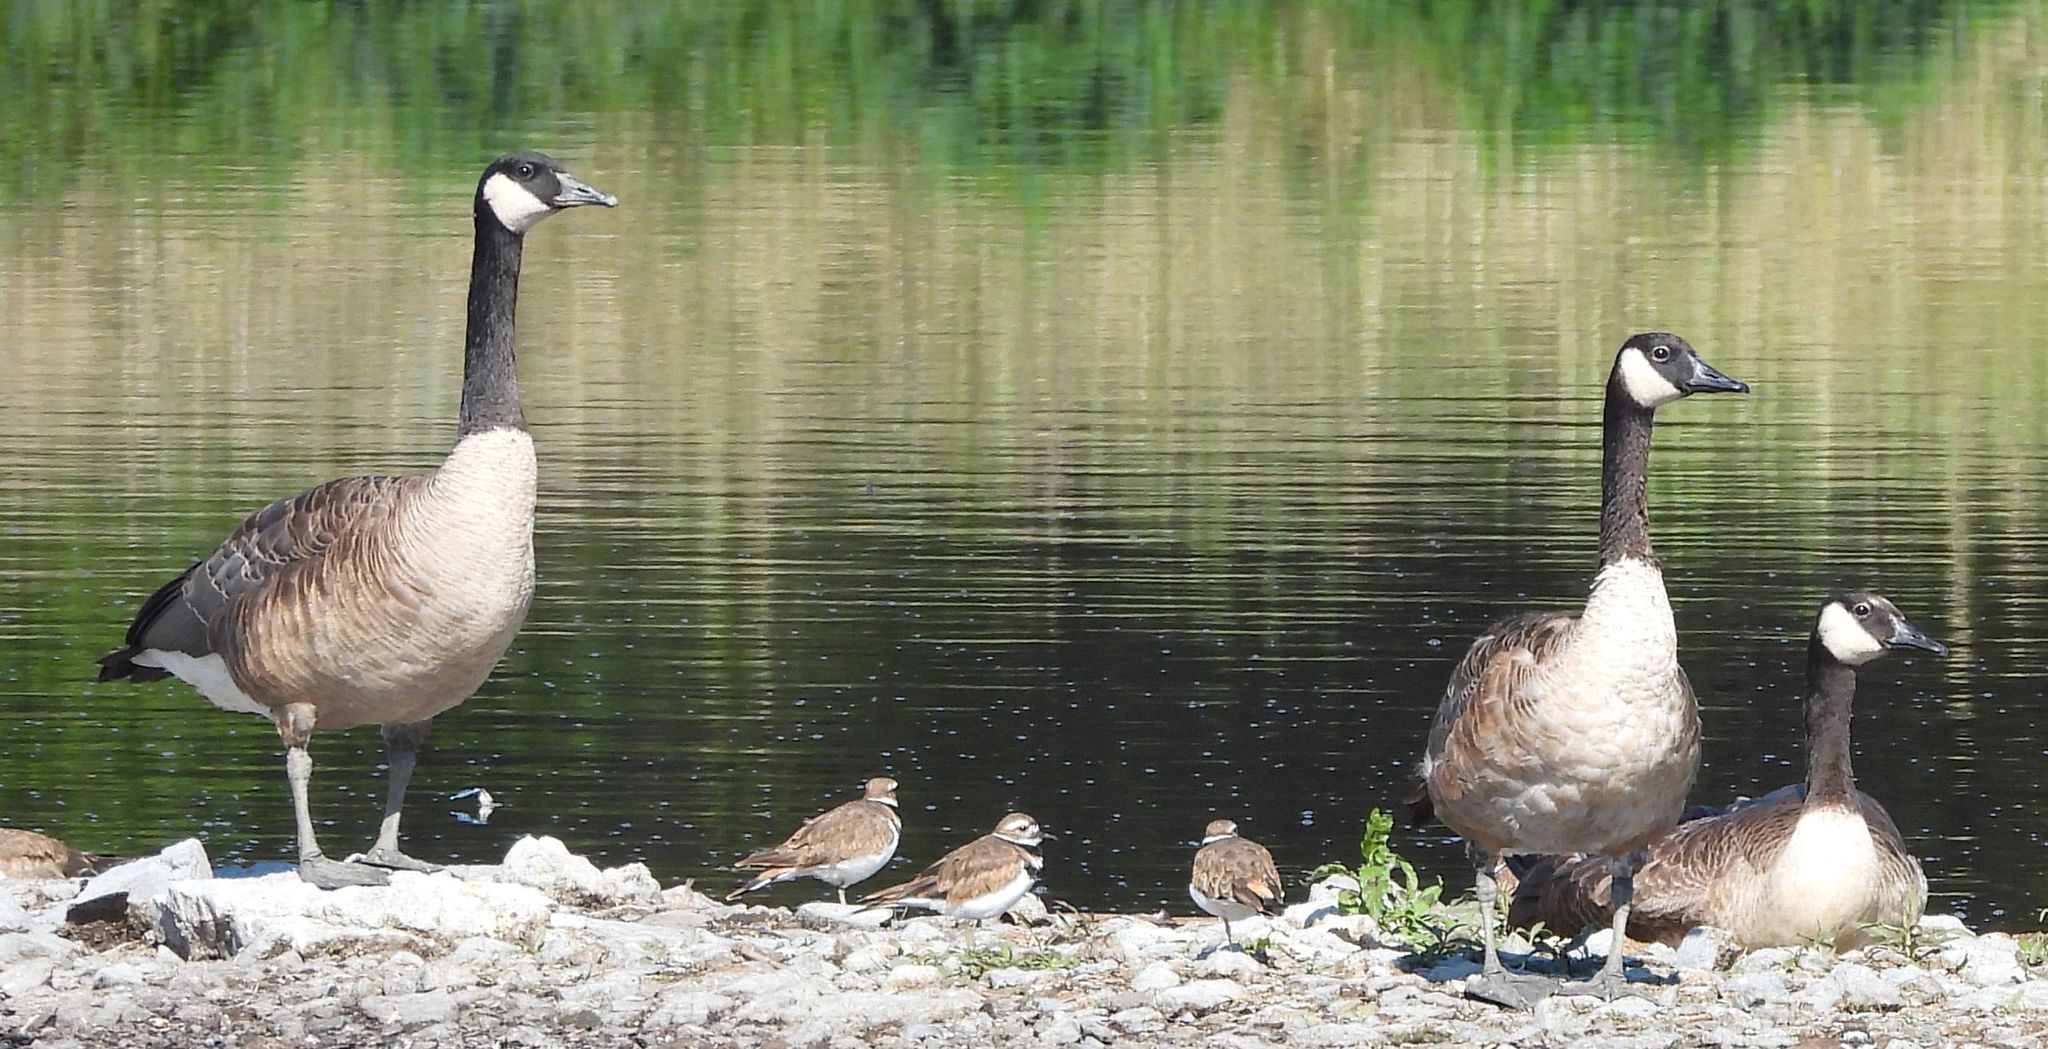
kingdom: Animalia
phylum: Chordata
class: Aves
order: Anseriformes
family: Anatidae
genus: Branta
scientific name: Branta canadensis
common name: Canada goose
